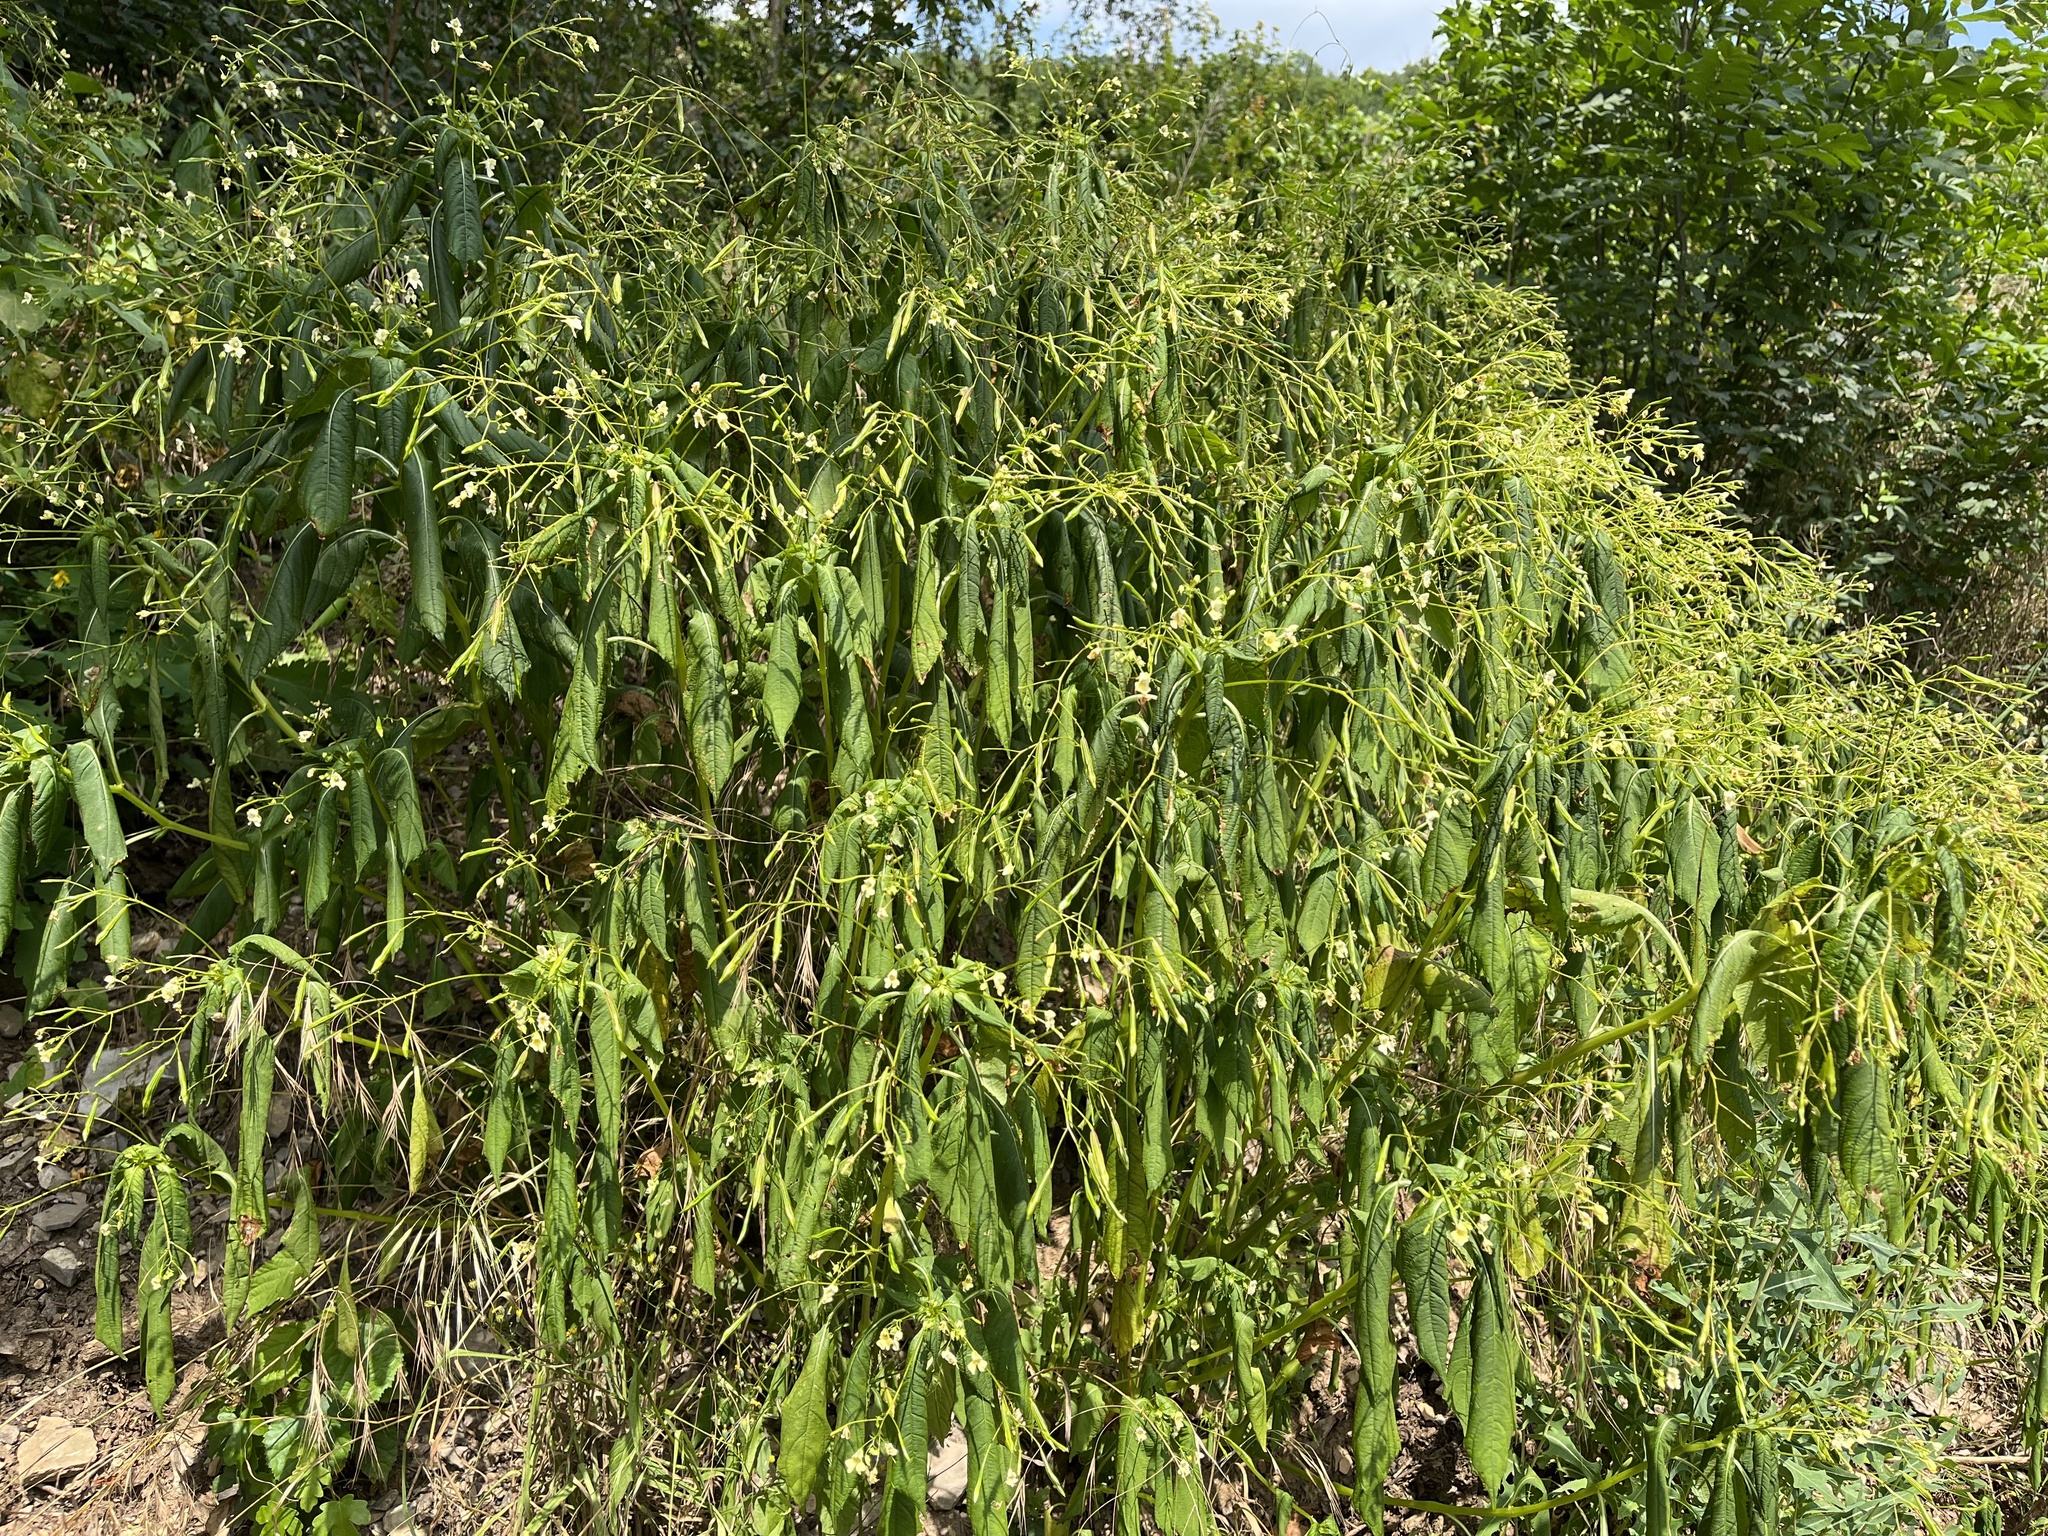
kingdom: Plantae
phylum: Tracheophyta
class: Magnoliopsida
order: Ericales
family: Balsaminaceae
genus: Impatiens
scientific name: Impatiens parviflora
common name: Small balsam
